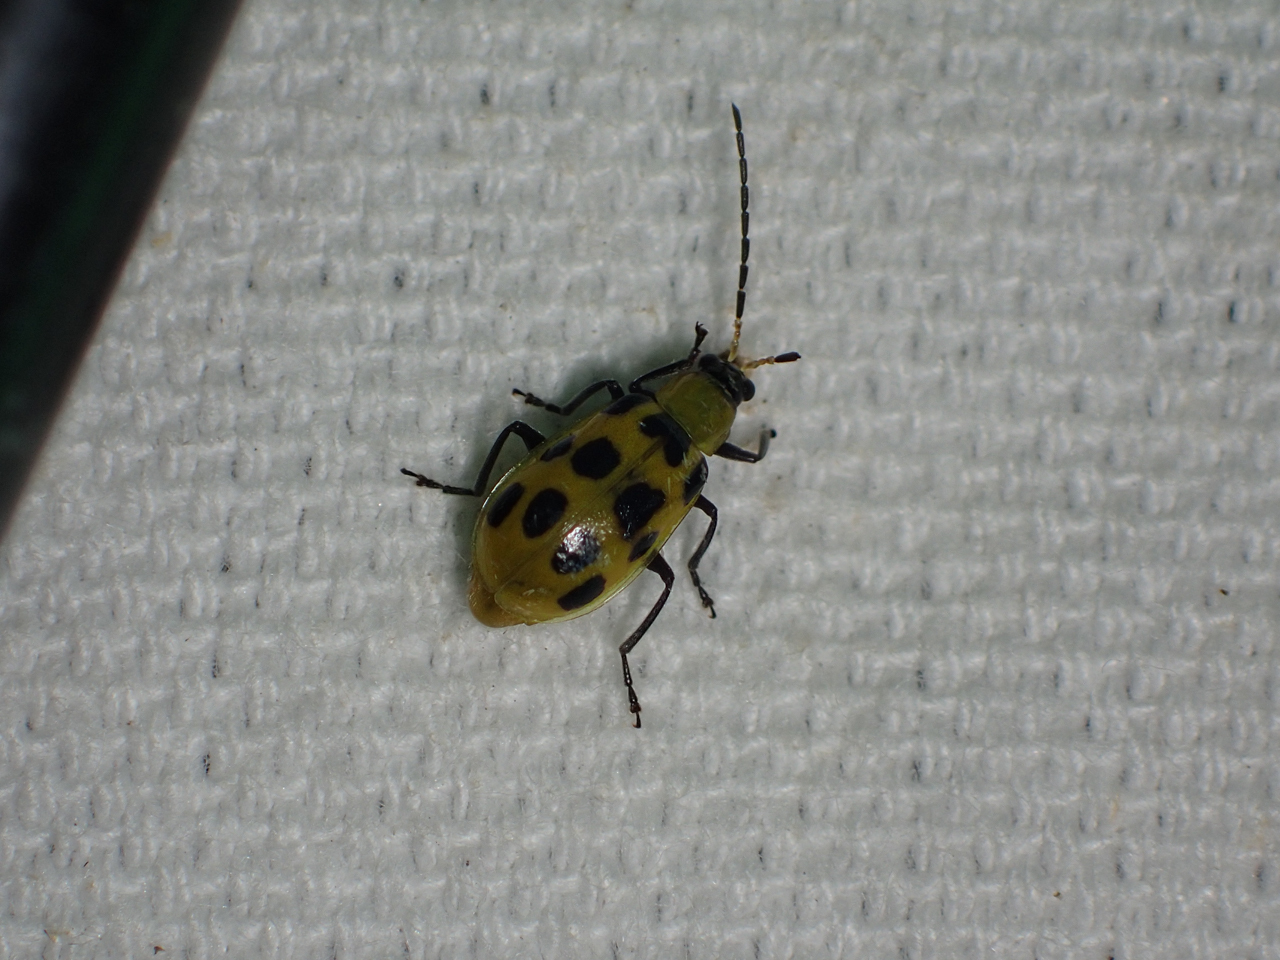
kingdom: Animalia
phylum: Arthropoda
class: Insecta
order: Coleoptera
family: Chrysomelidae
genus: Diabrotica
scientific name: Diabrotica undecimpunctata
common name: Spotted cucumber beetle
